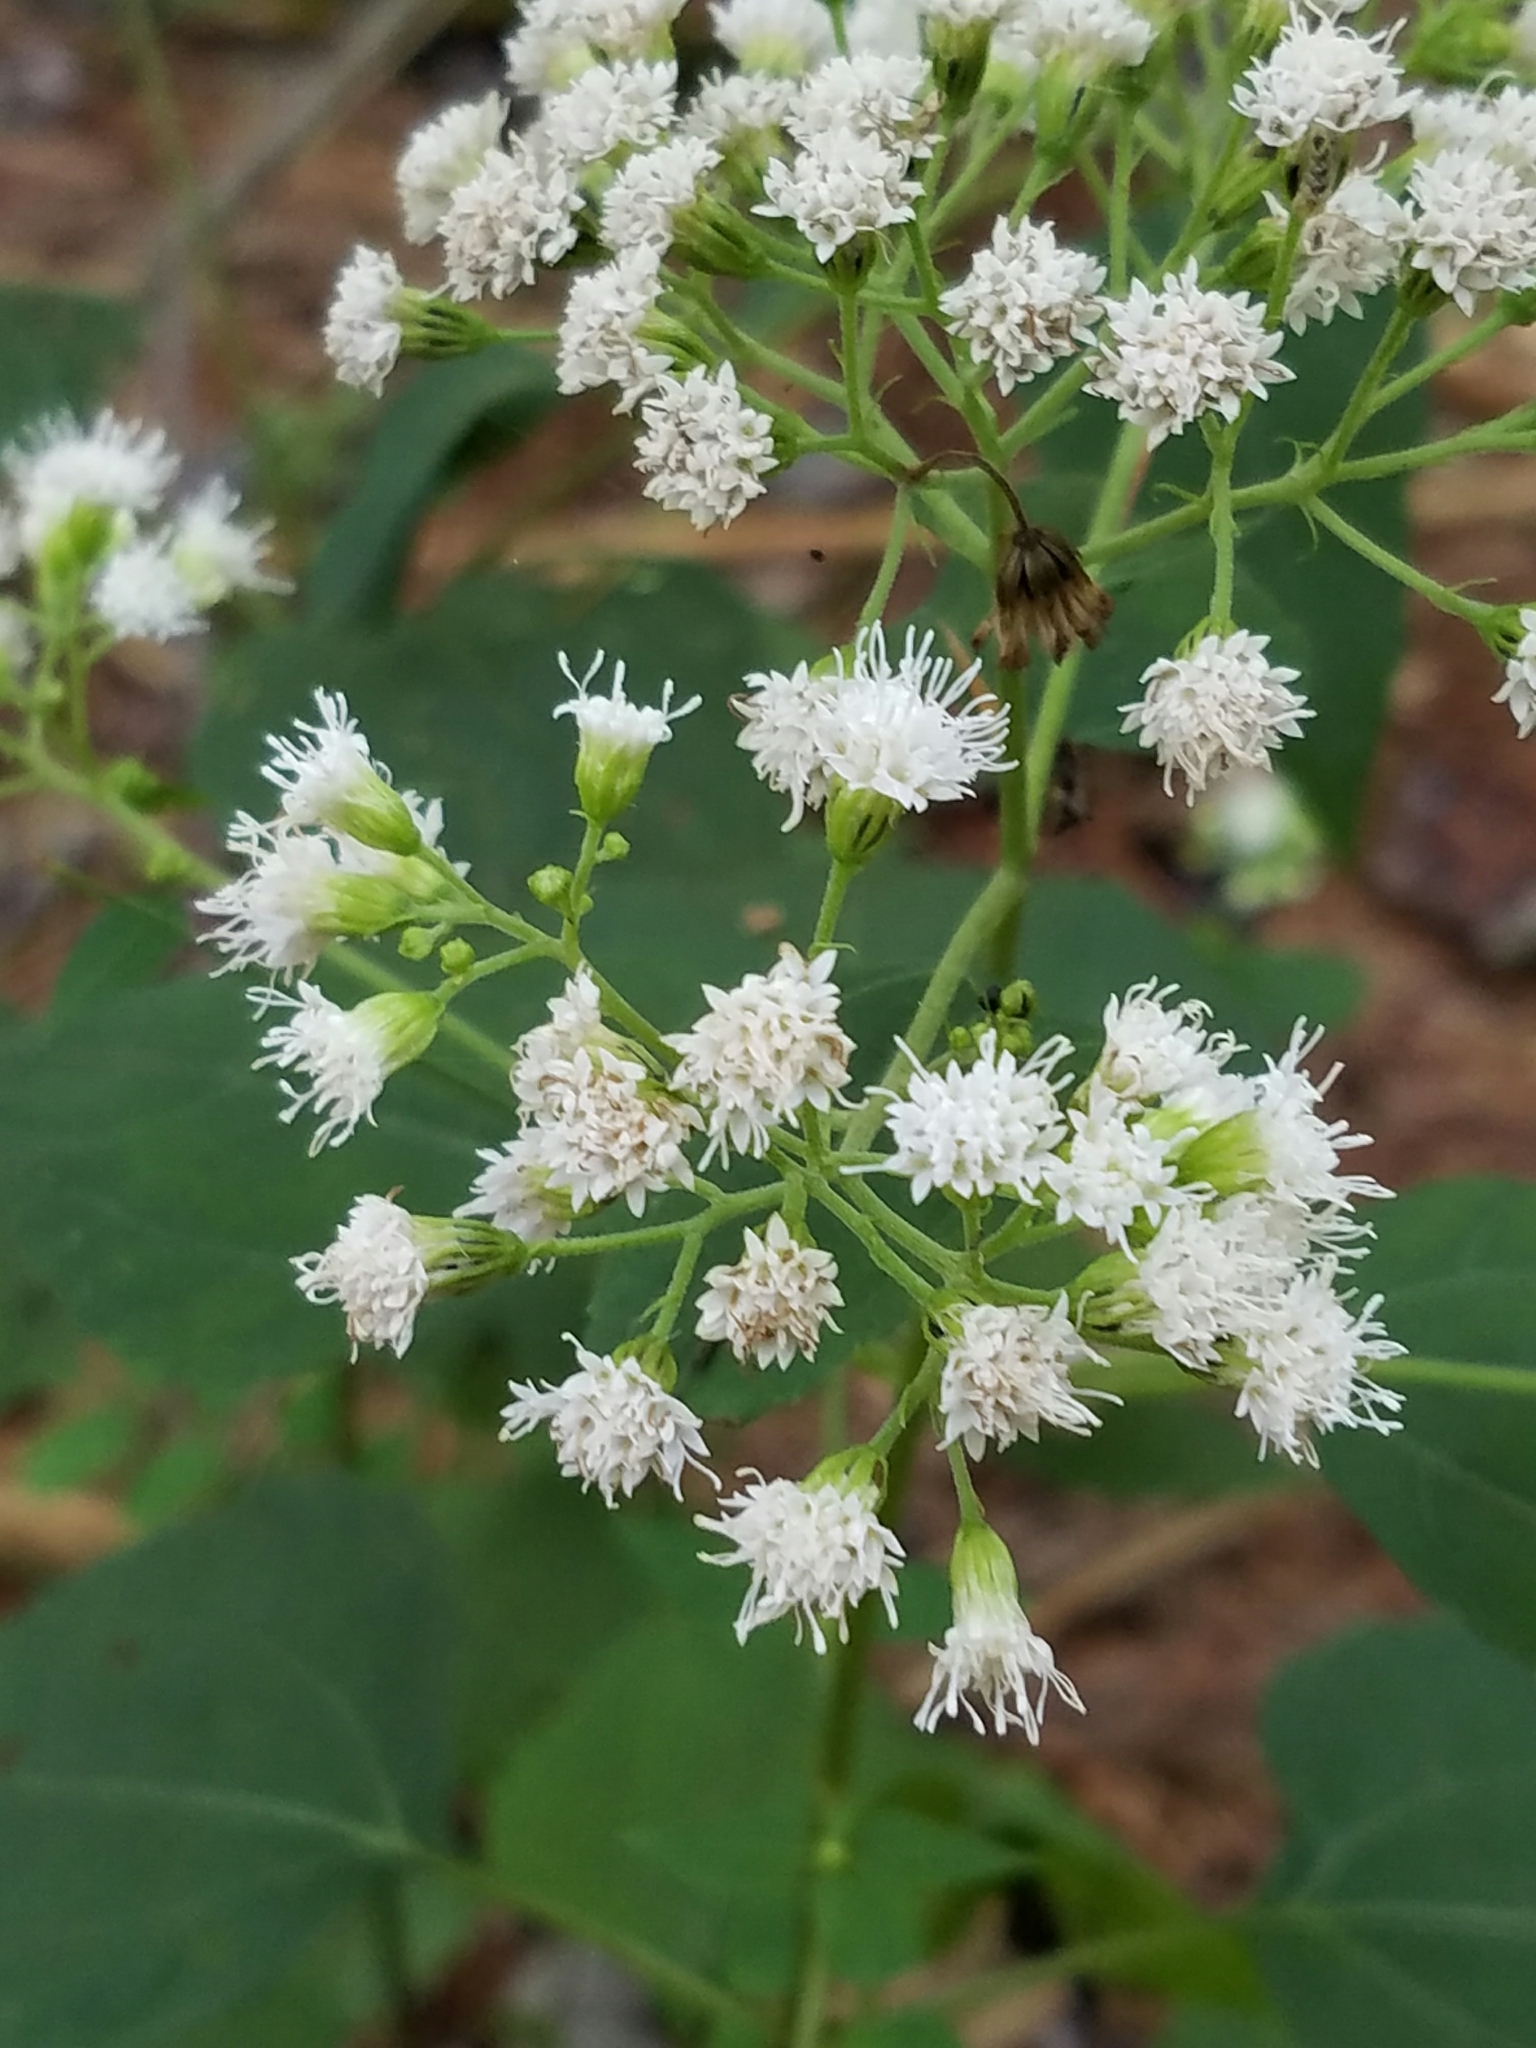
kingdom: Plantae
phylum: Tracheophyta
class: Magnoliopsida
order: Asterales
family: Asteraceae
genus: Ageratina
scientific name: Ageratina altissima
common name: White snakeroot
